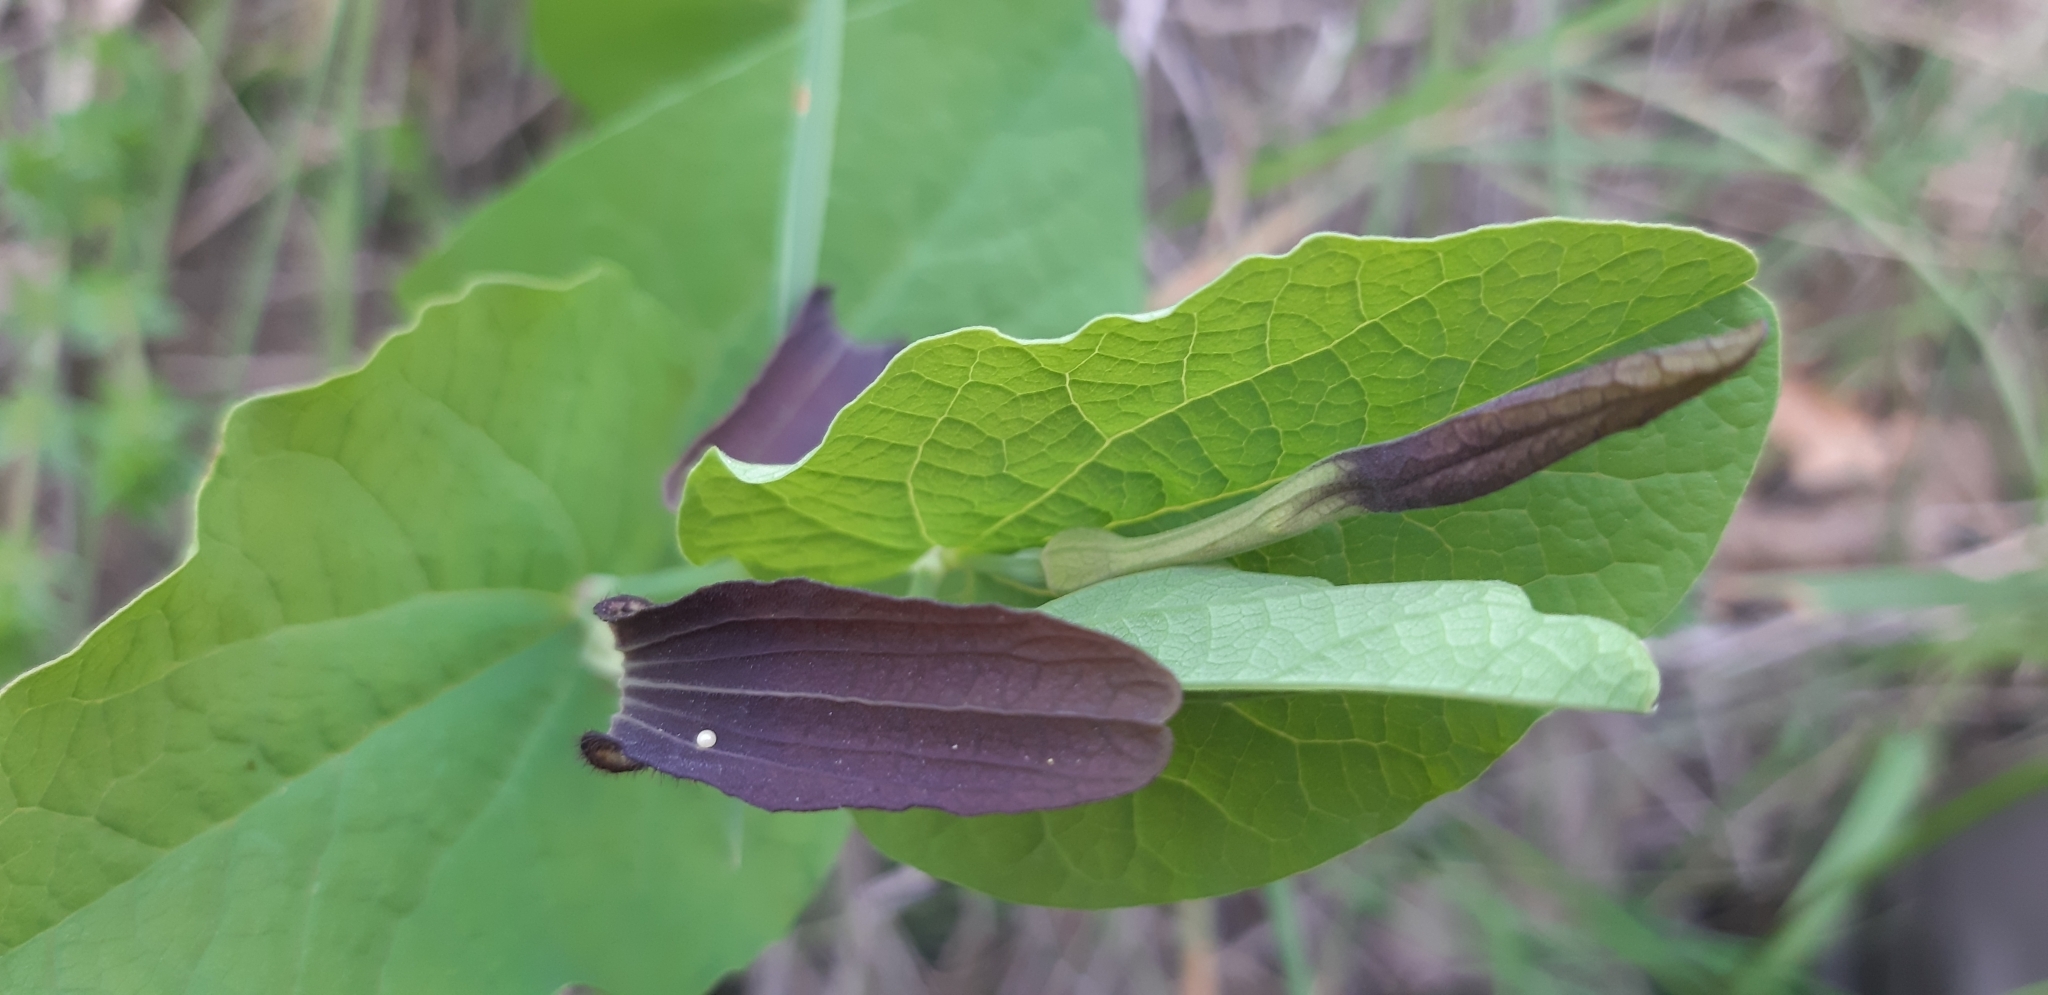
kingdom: Animalia
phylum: Arthropoda
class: Insecta
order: Lepidoptera
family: Papilionidae
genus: Zerynthia
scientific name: Zerynthia cassandra
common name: Italian festoon
